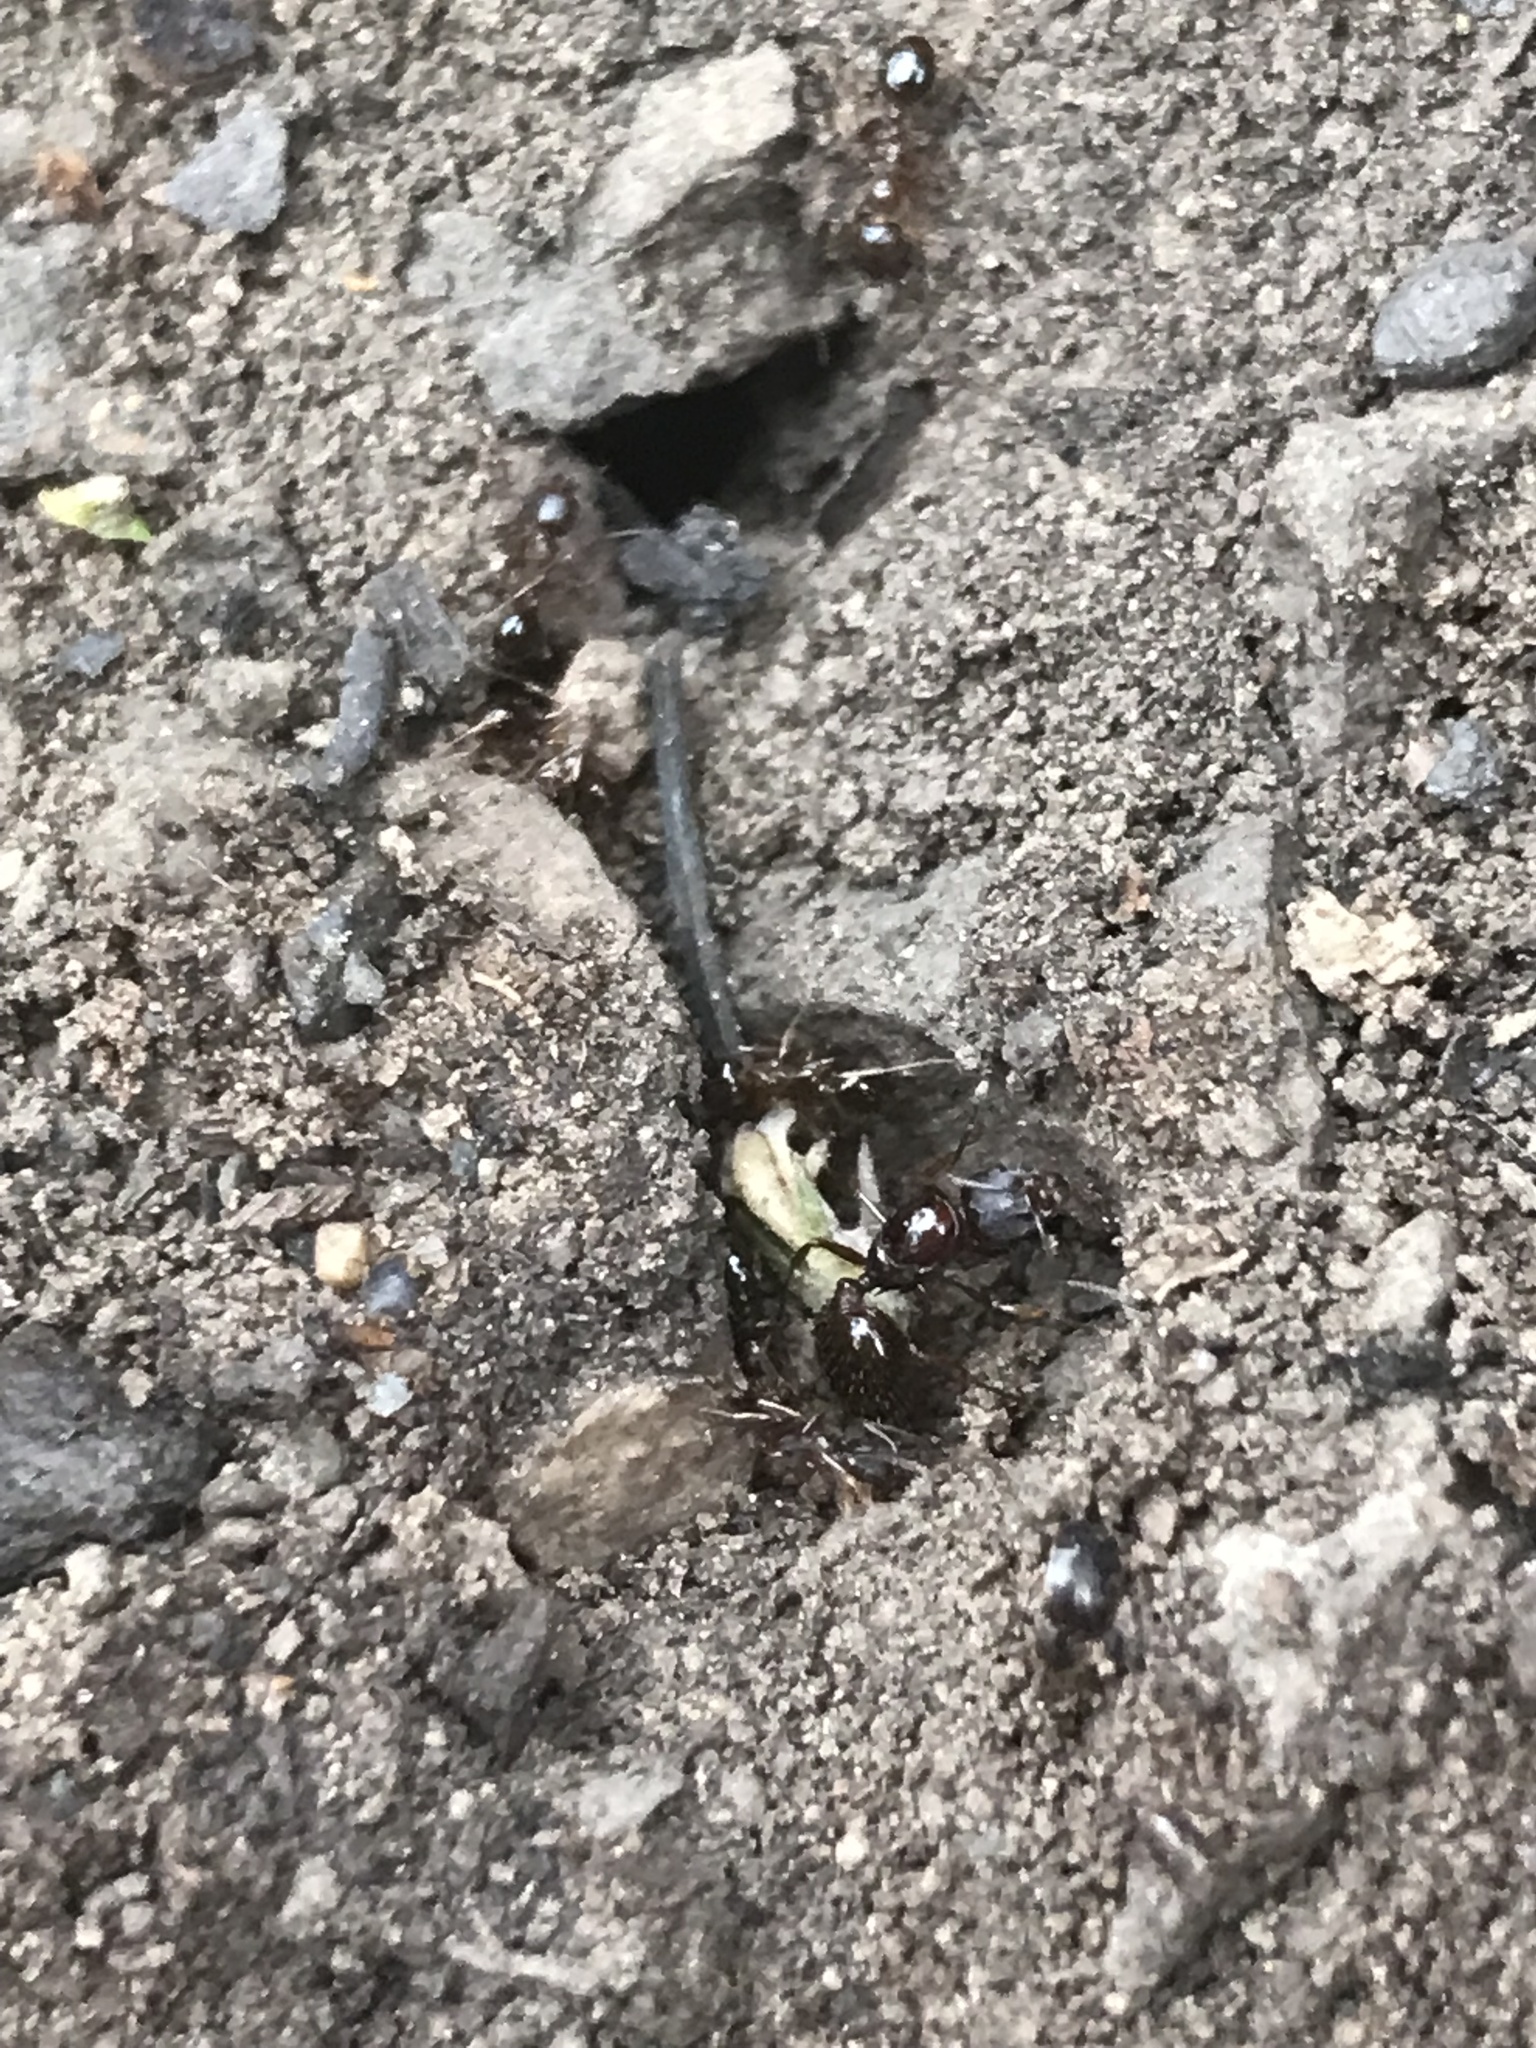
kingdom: Animalia
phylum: Arthropoda
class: Insecta
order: Hymenoptera
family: Formicidae
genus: Aphaenogaster
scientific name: Aphaenogaster occidentalis
